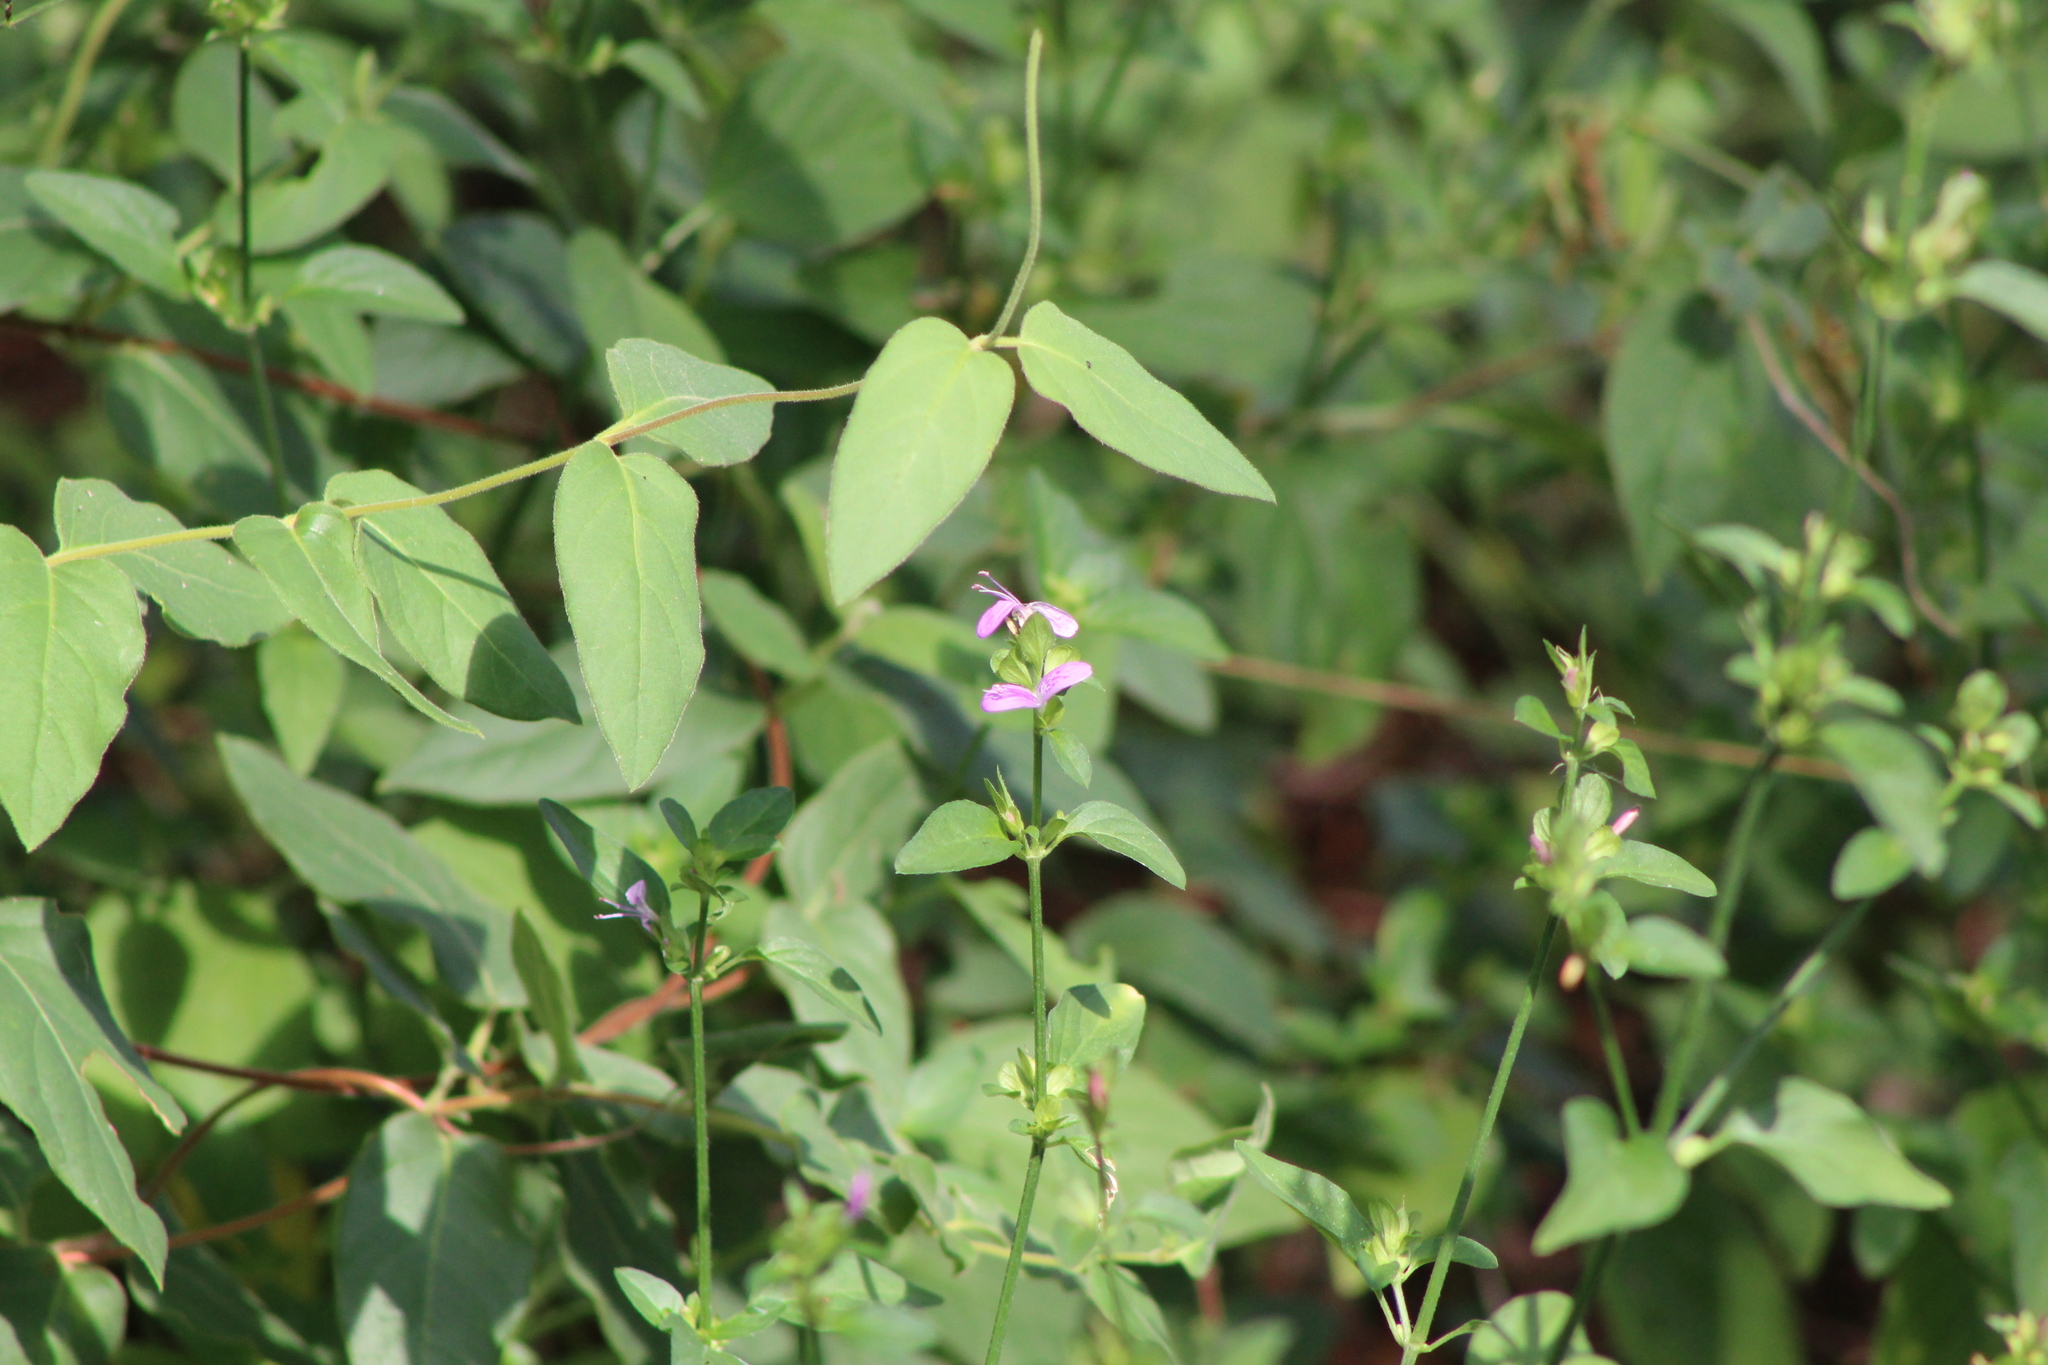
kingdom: Plantae
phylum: Tracheophyta
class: Magnoliopsida
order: Lamiales
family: Acanthaceae
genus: Dicliptera
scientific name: Dicliptera brachiata
